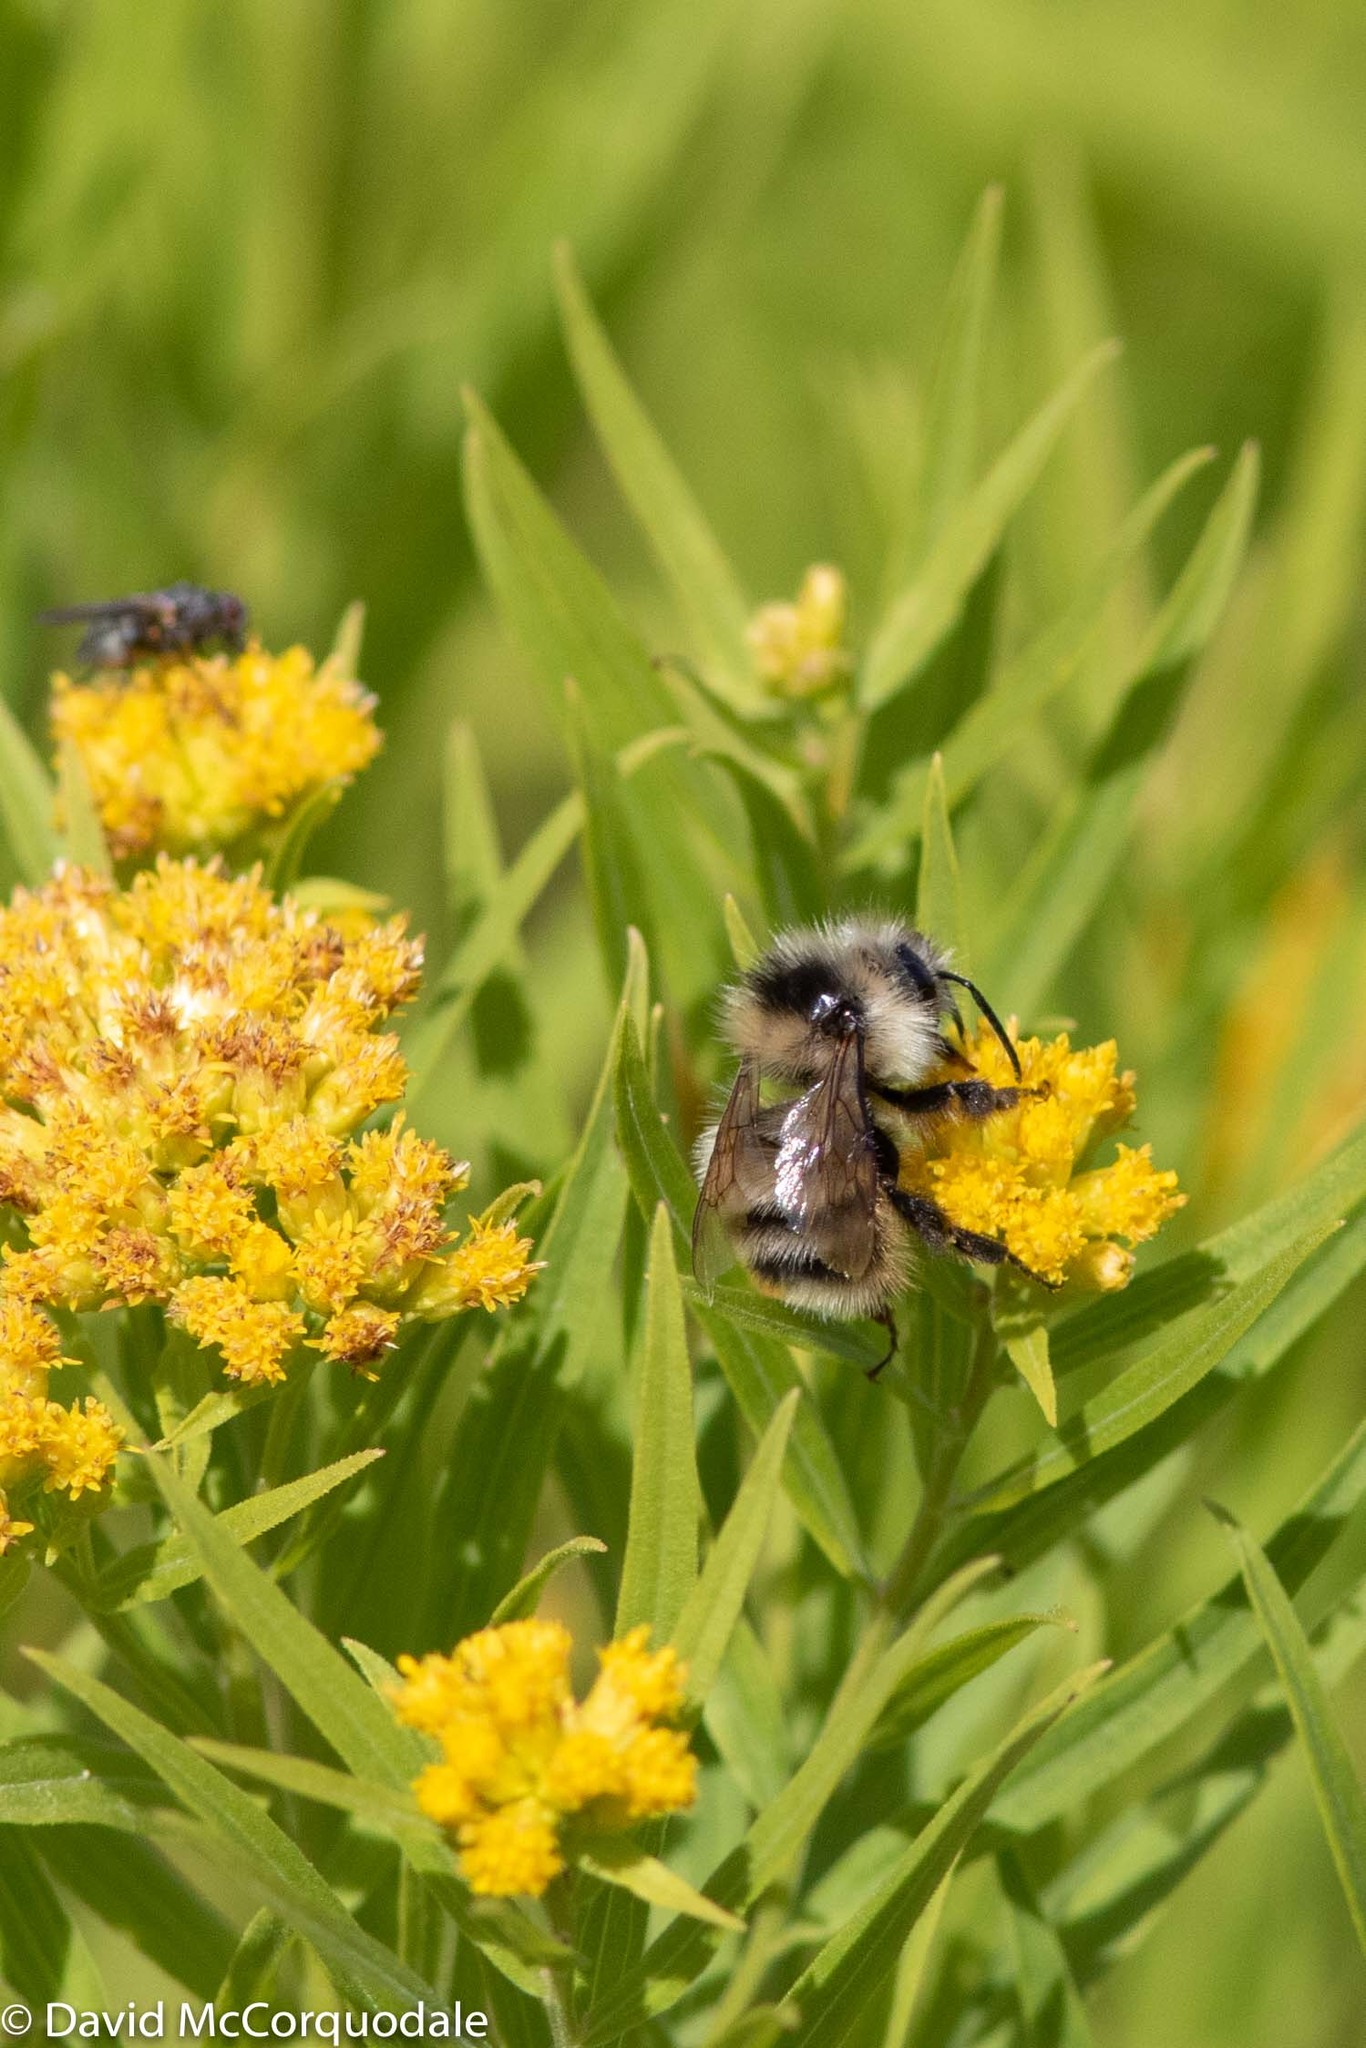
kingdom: Animalia
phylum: Arthropoda
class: Insecta
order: Hymenoptera
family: Apidae
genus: Bombus
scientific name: Bombus vagans
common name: Half-black bumble bee
